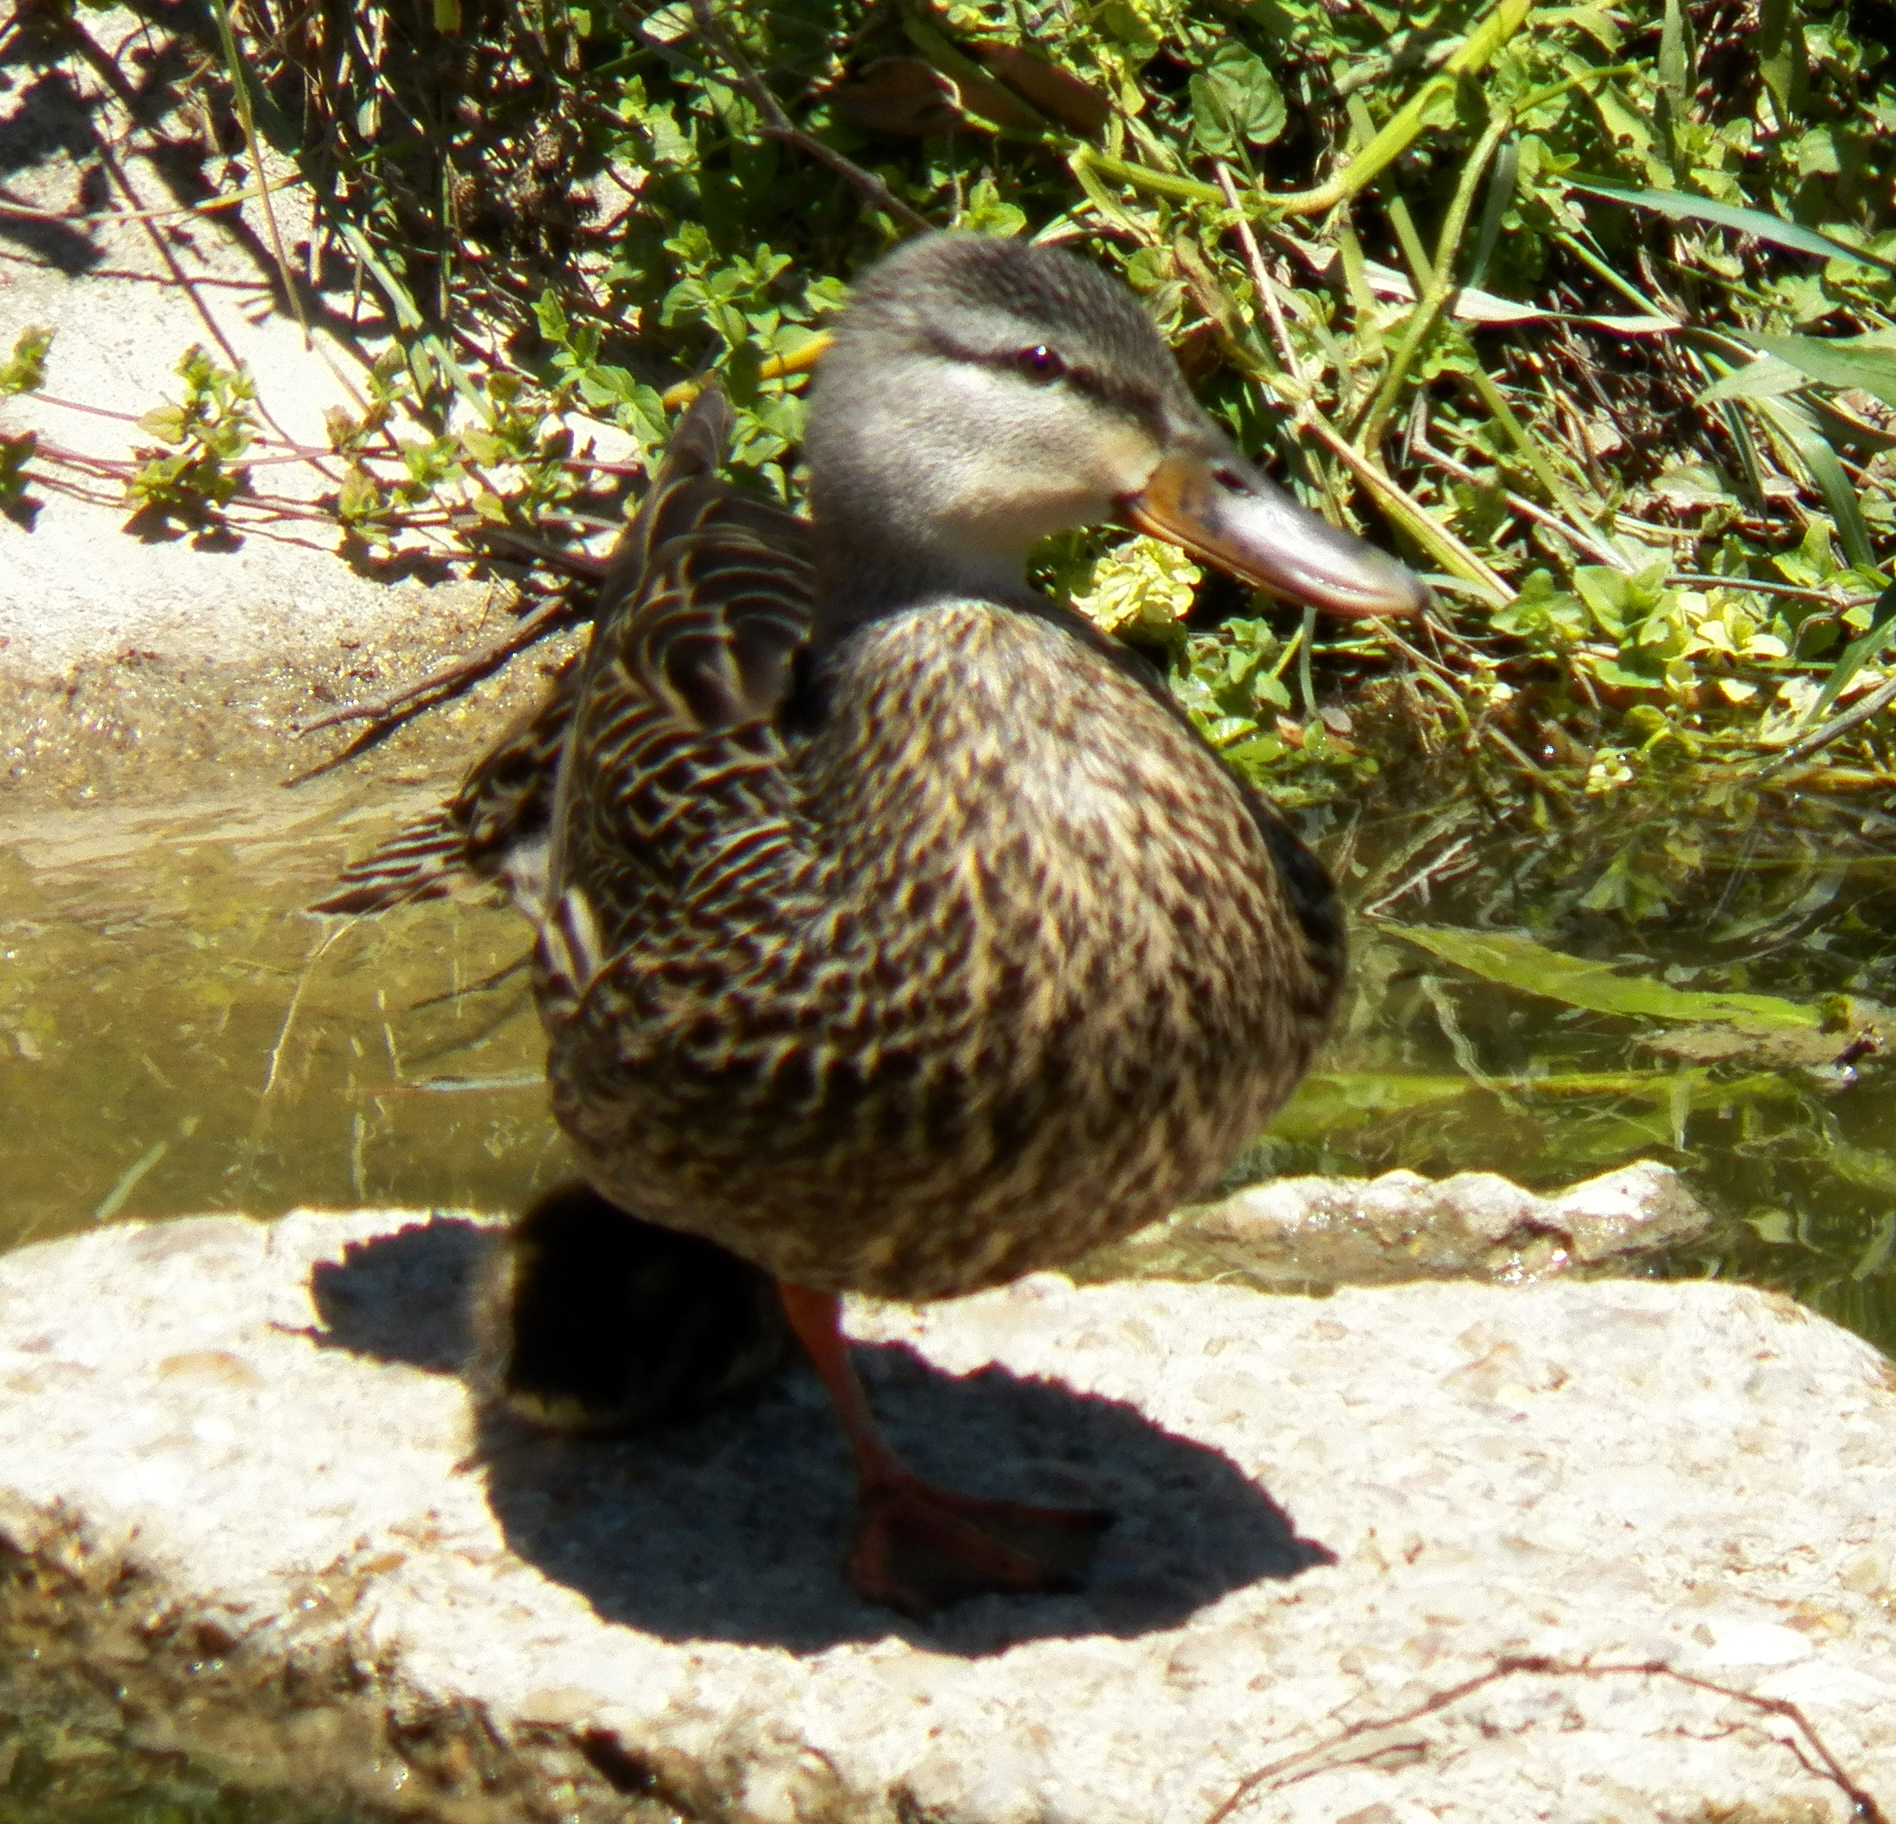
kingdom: Animalia
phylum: Chordata
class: Aves
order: Anseriformes
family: Anatidae
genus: Anas
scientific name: Anas fulvigula
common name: Mottled duck
